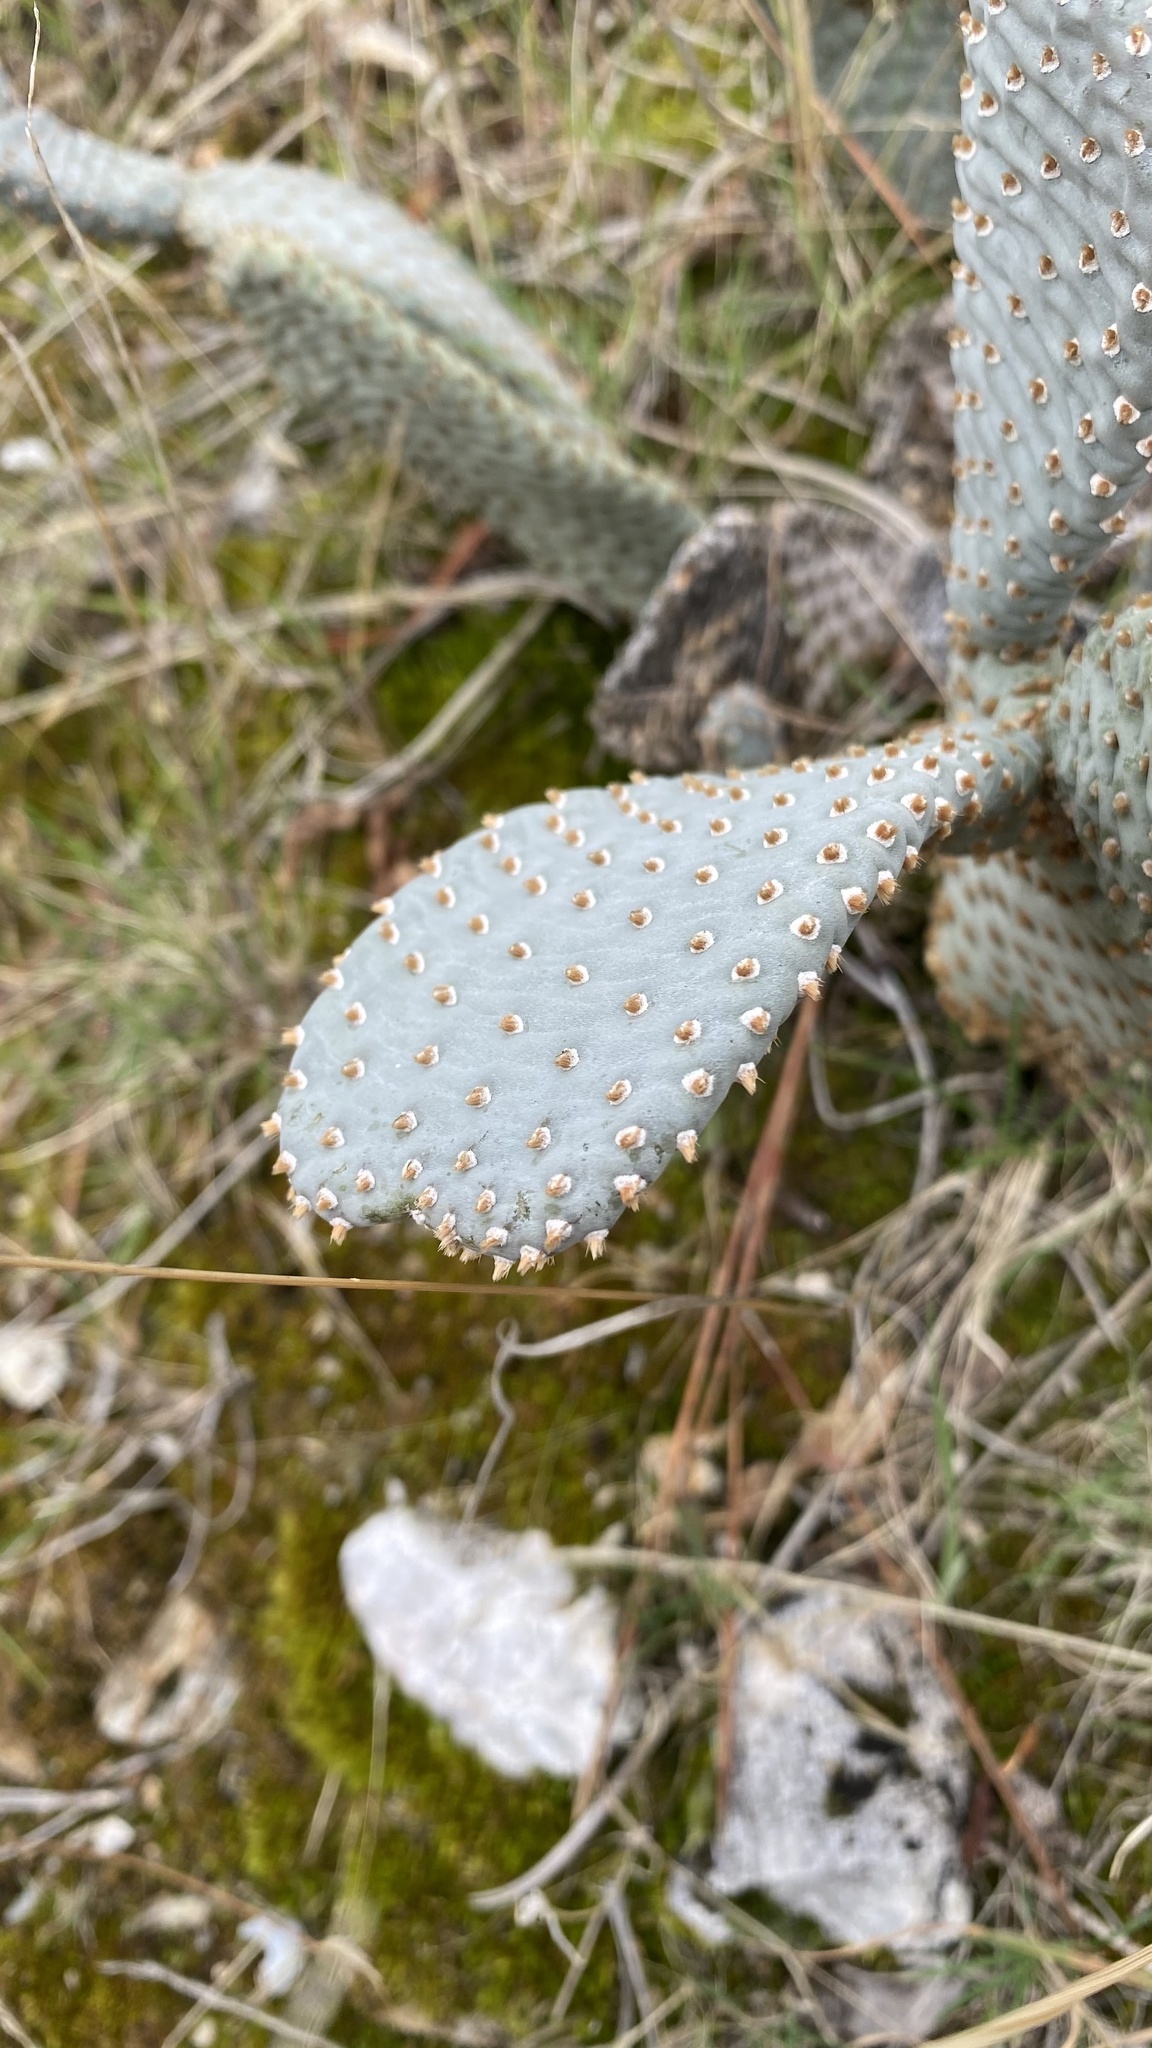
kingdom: Plantae
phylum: Tracheophyta
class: Magnoliopsida
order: Caryophyllales
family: Cactaceae
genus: Opuntia
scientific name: Opuntia basilaris
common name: Beavertail prickly-pear
